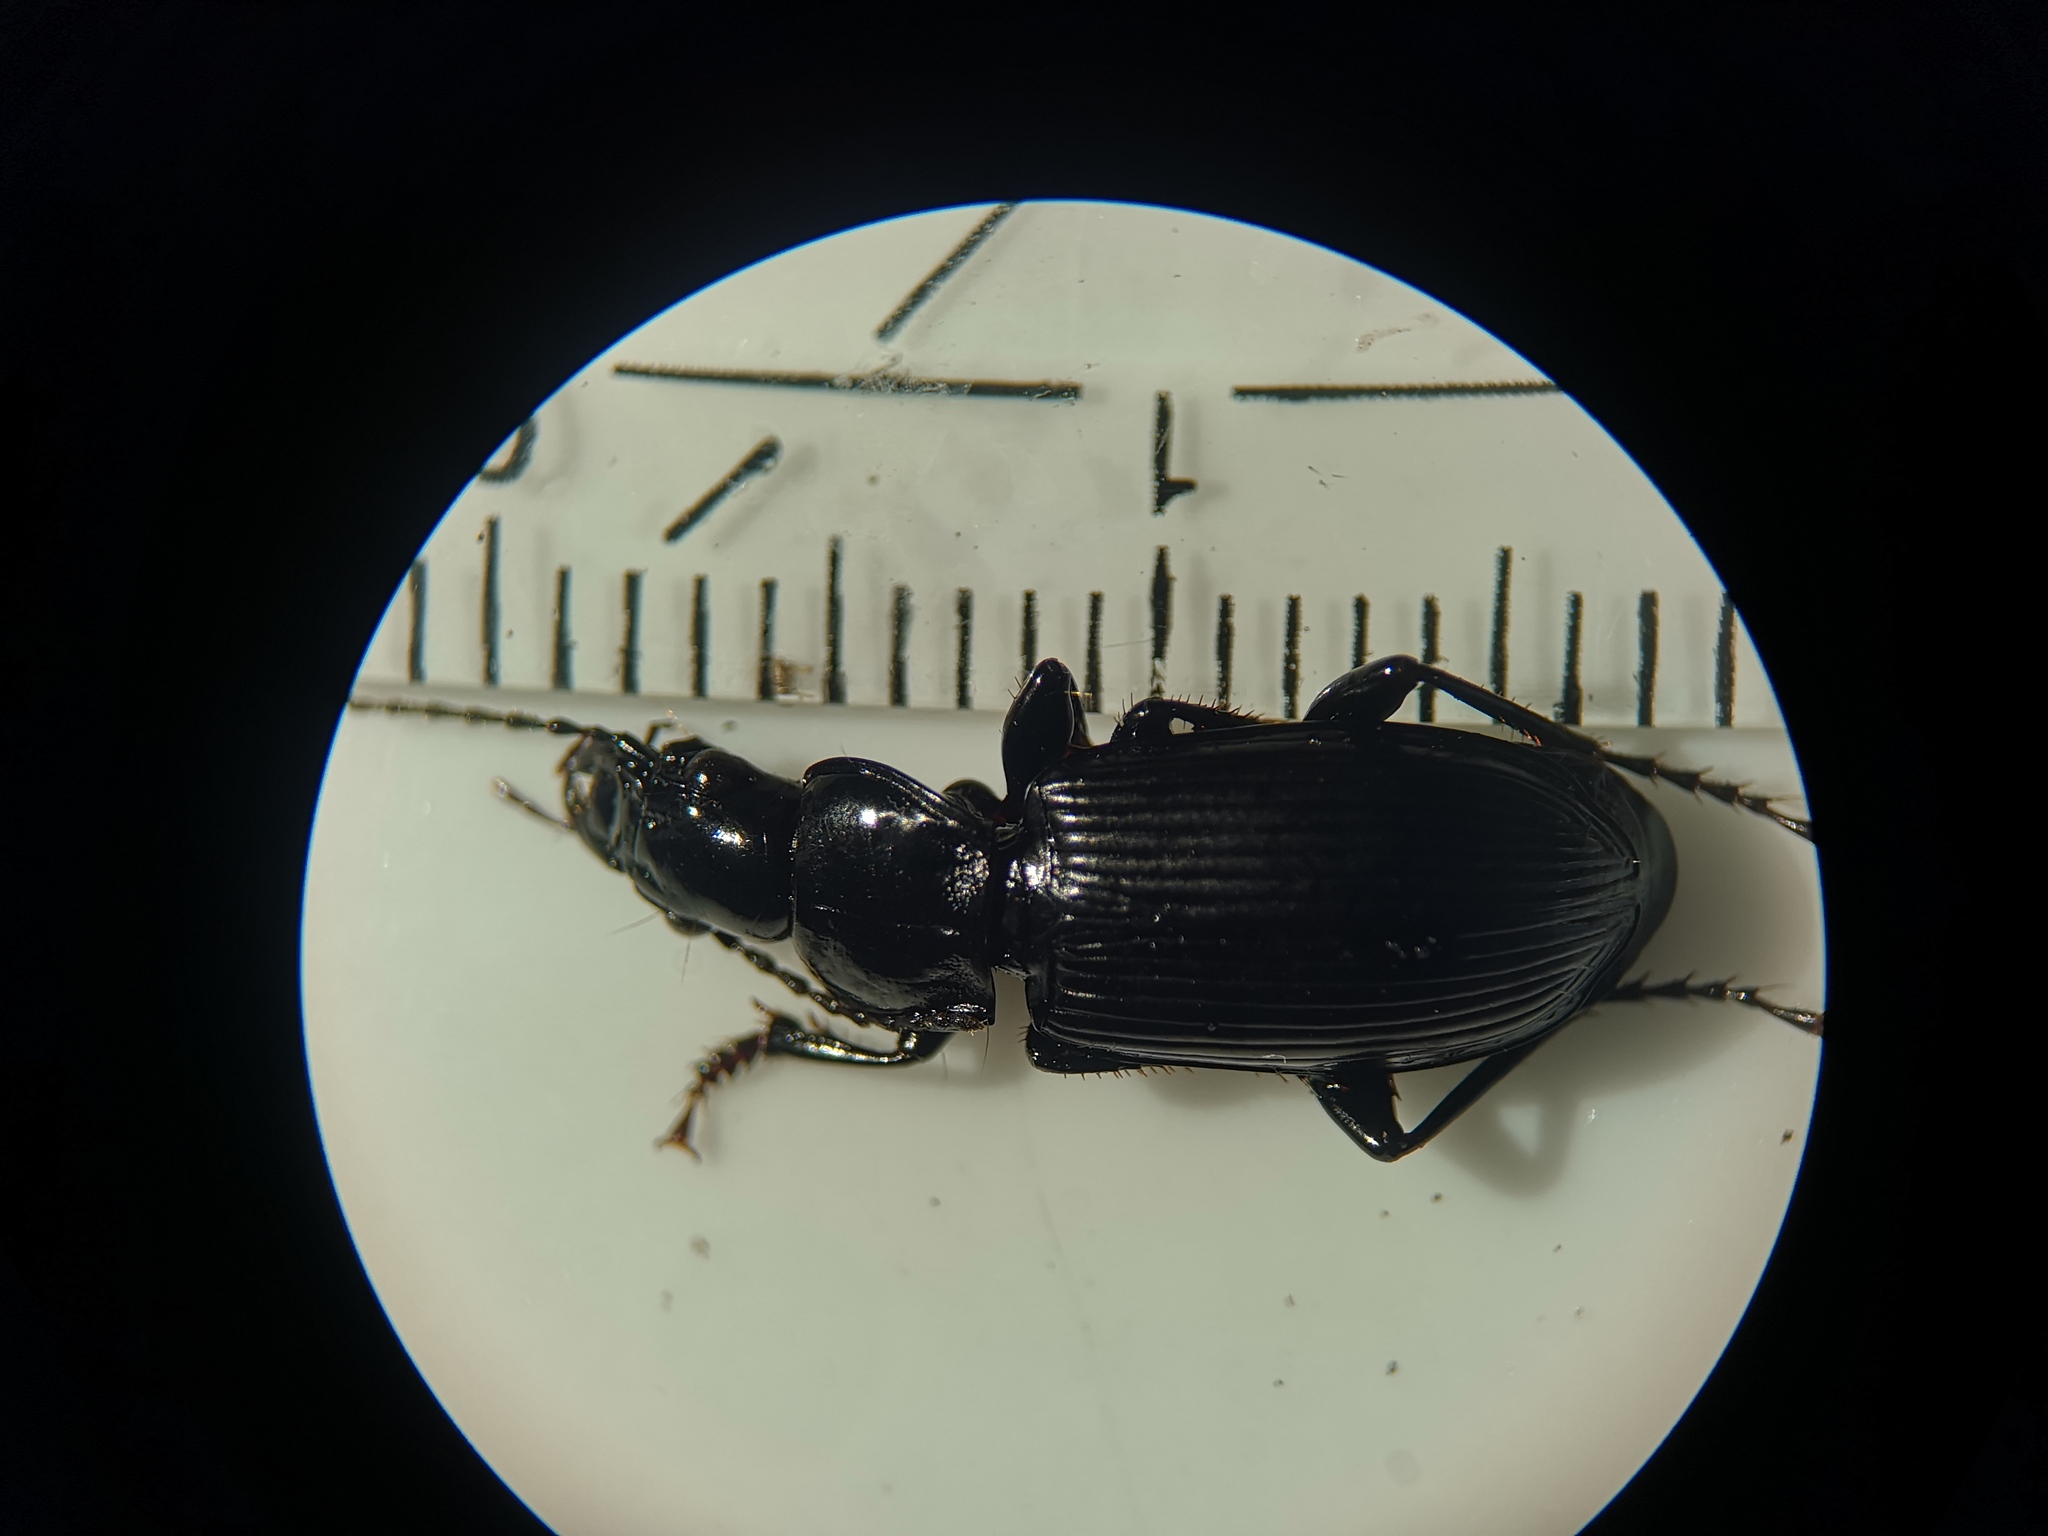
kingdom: Animalia
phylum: Arthropoda
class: Insecta
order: Coleoptera
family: Carabidae
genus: Pterostichus
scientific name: Pterostichus melanarius
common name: European dark harp ground beetle
